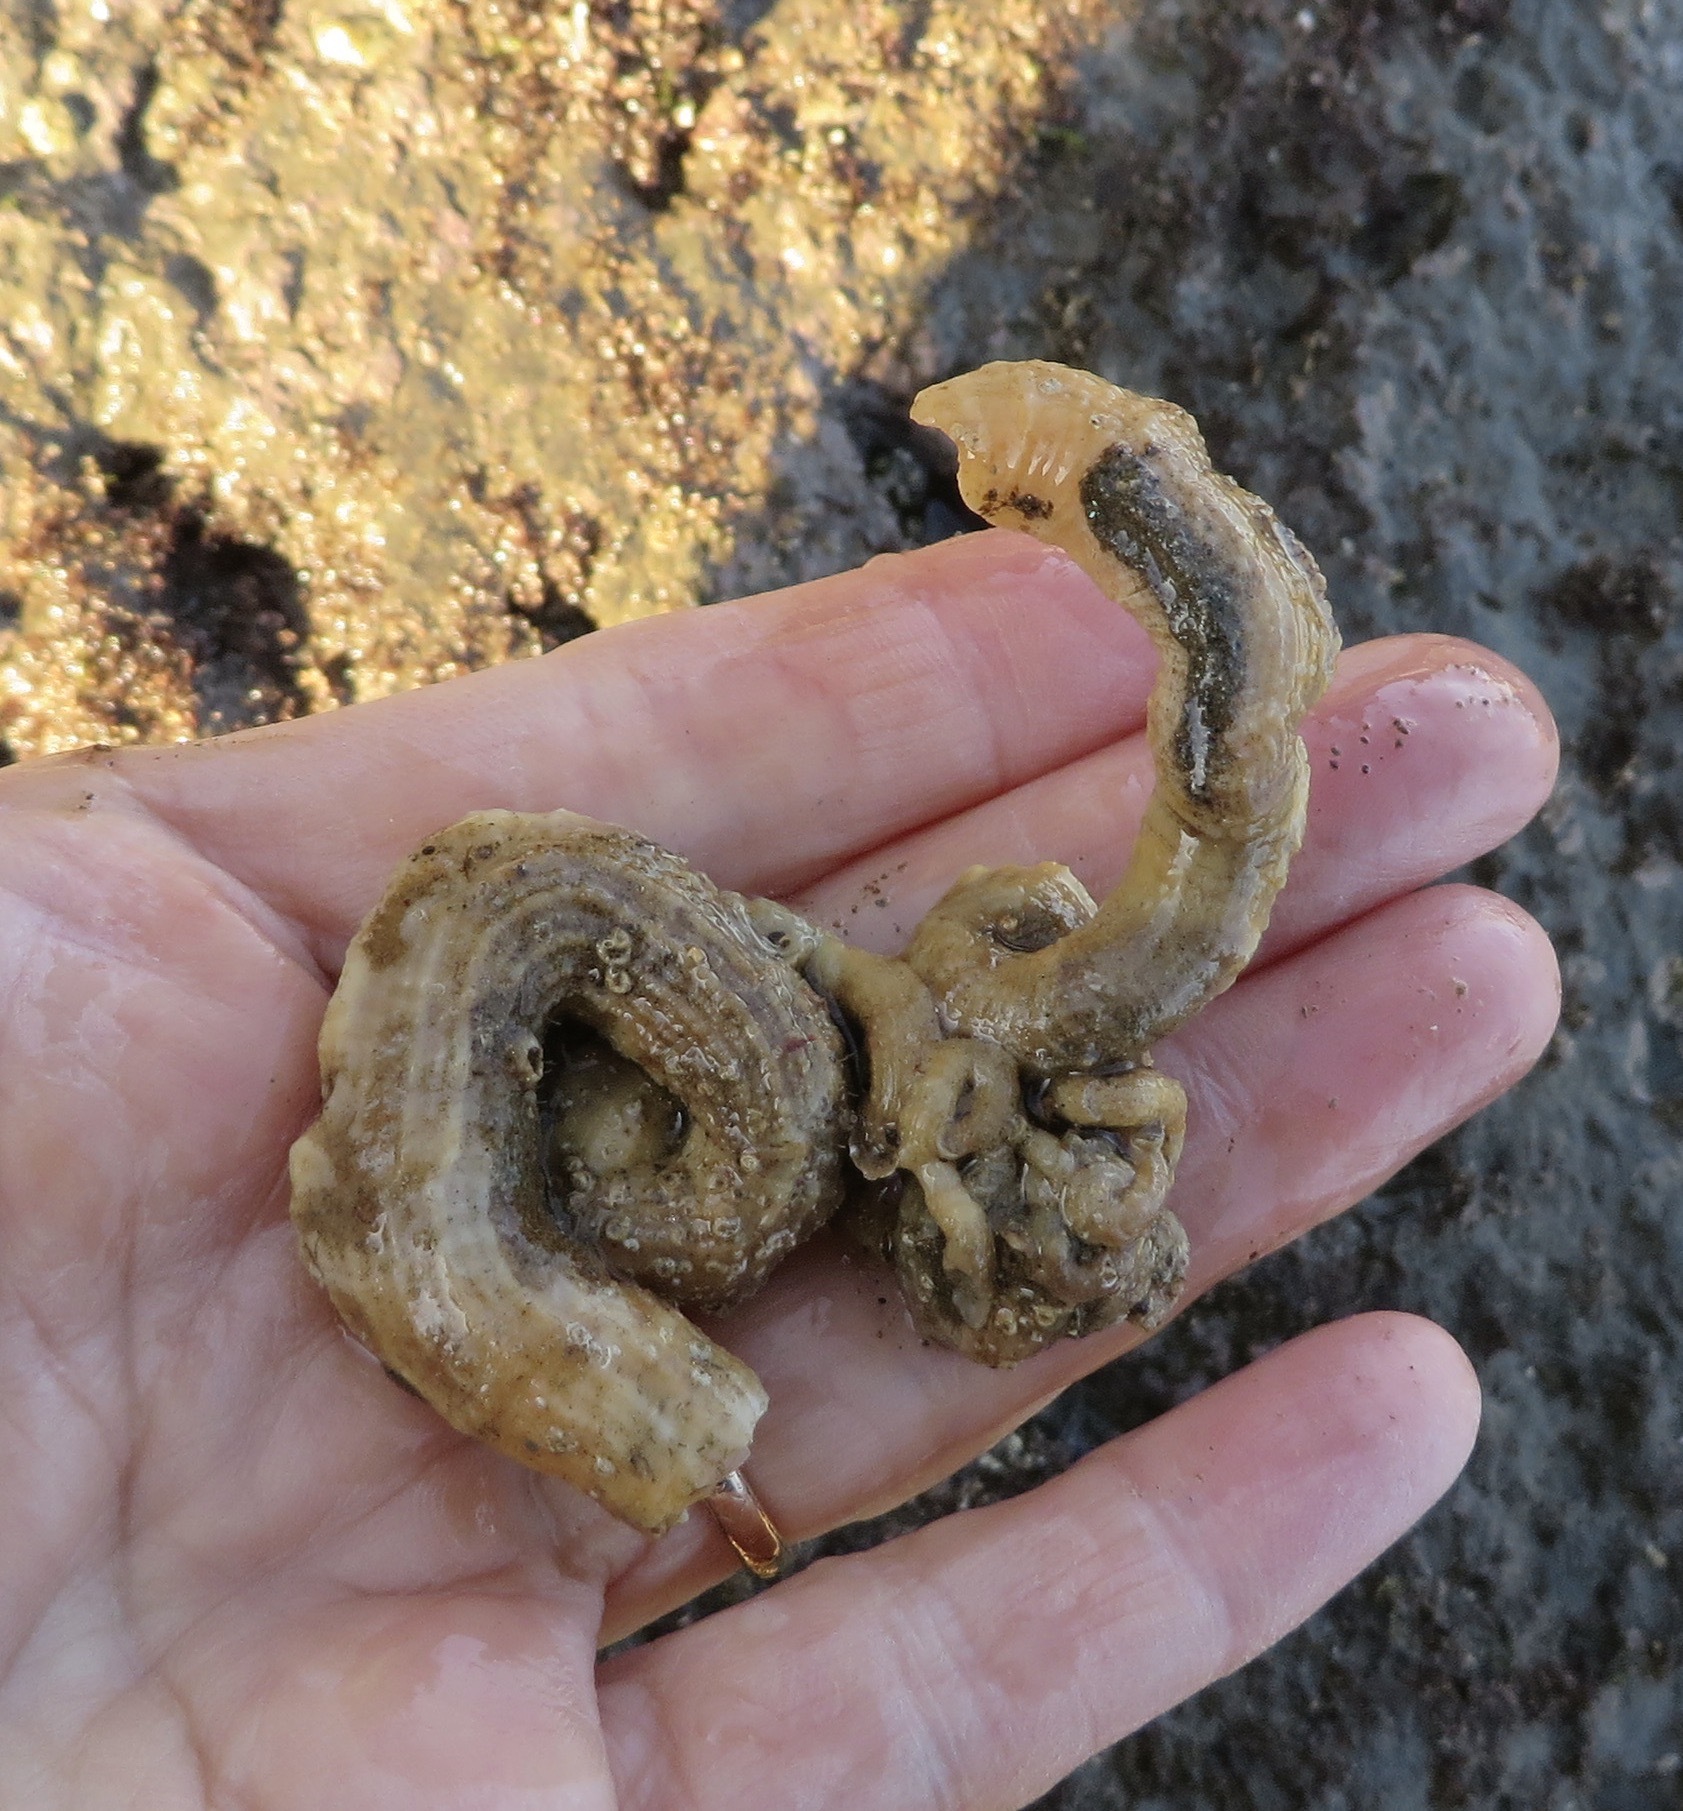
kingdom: Animalia
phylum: Mollusca
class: Gastropoda
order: Littorinimorpha
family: Vermetidae
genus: Thylacodes
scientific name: Thylacodes squamigerus
